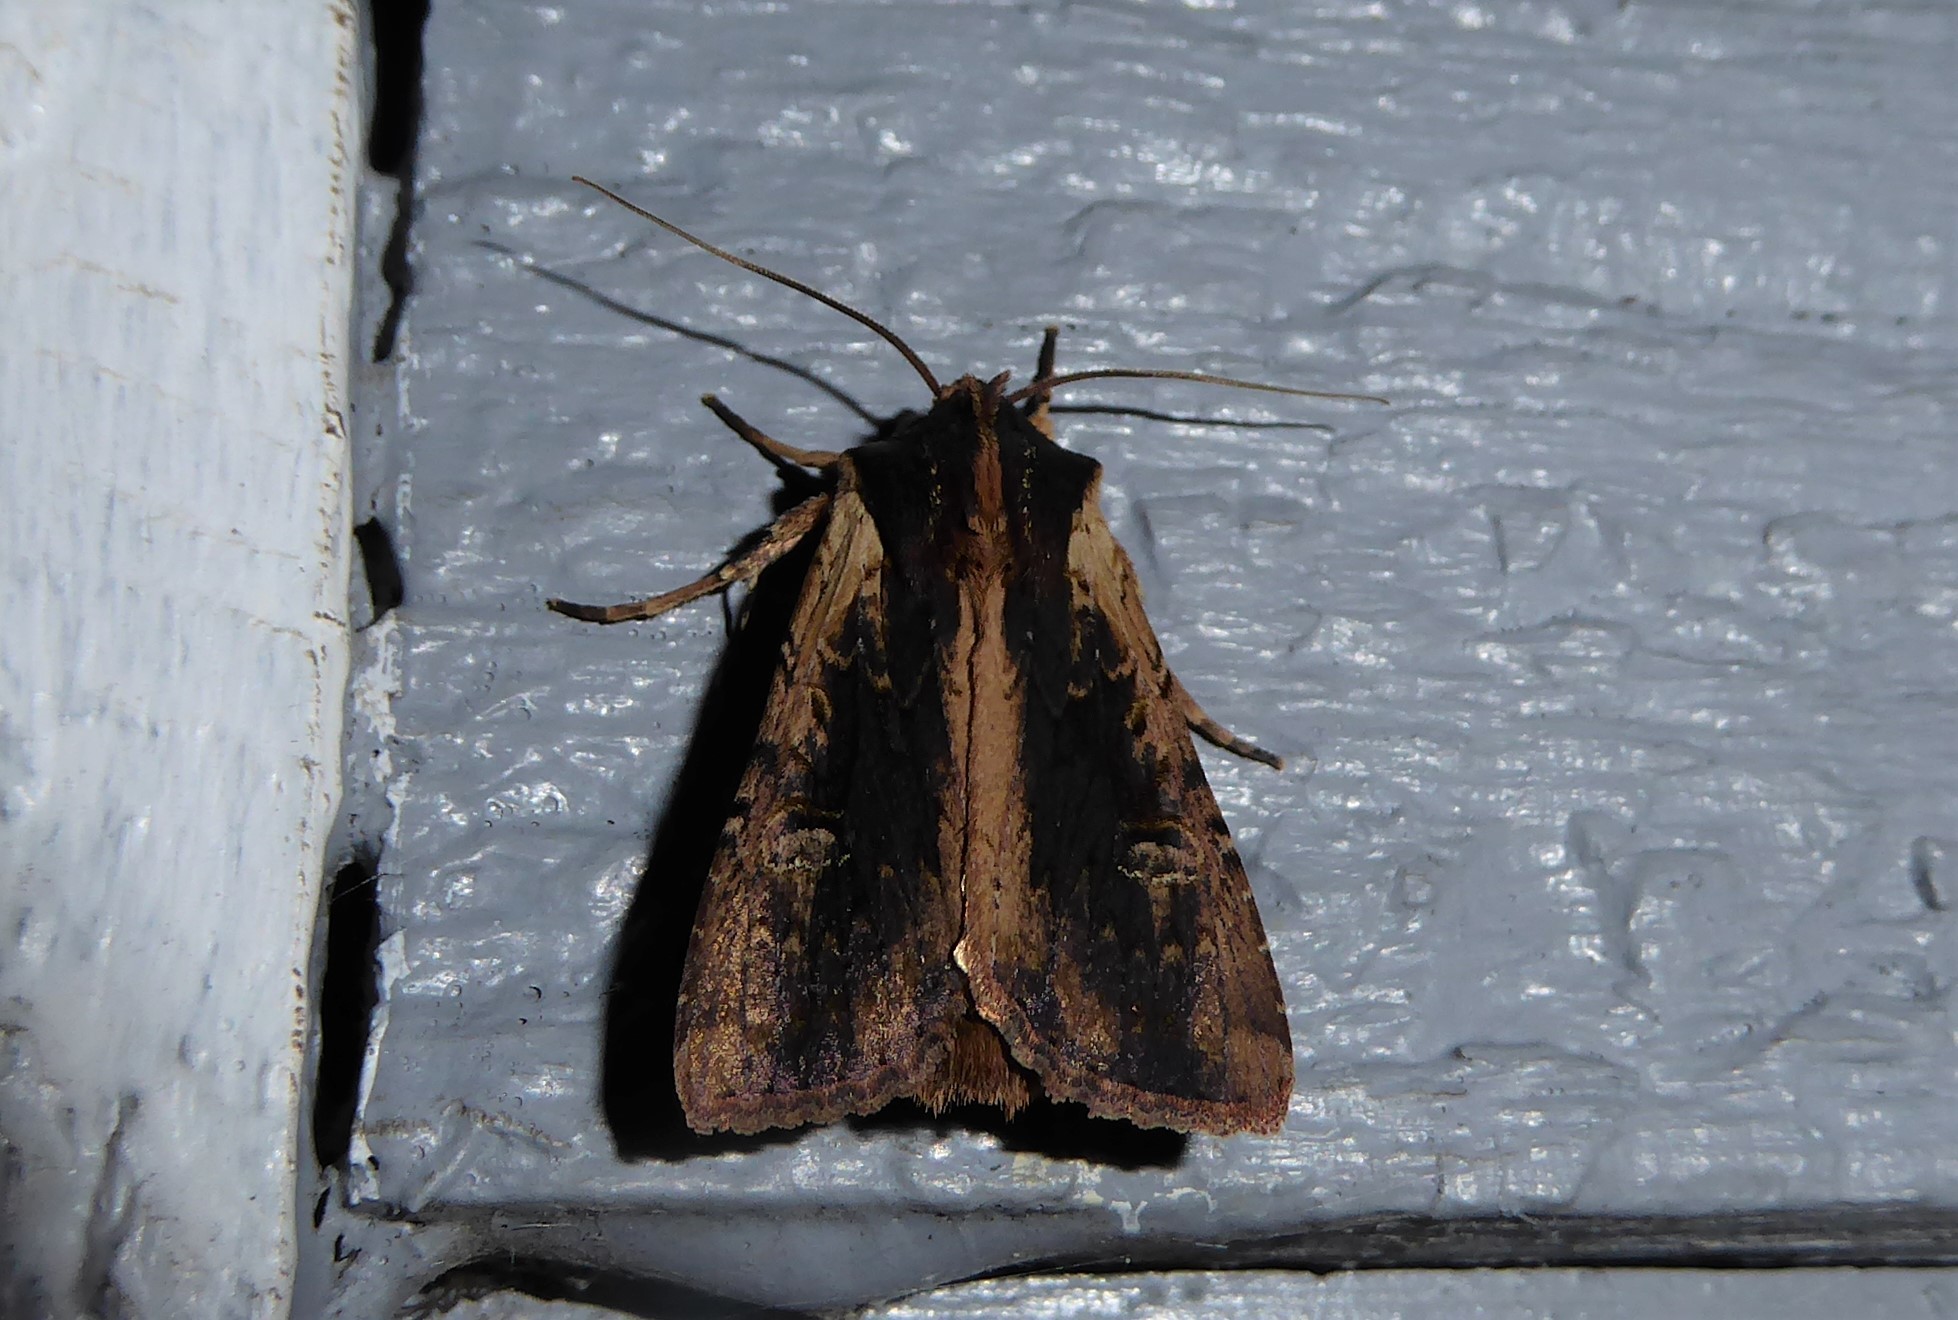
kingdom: Animalia
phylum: Arthropoda
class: Insecta
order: Lepidoptera
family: Noctuidae
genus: Ichneutica
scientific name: Ichneutica omoplaca
